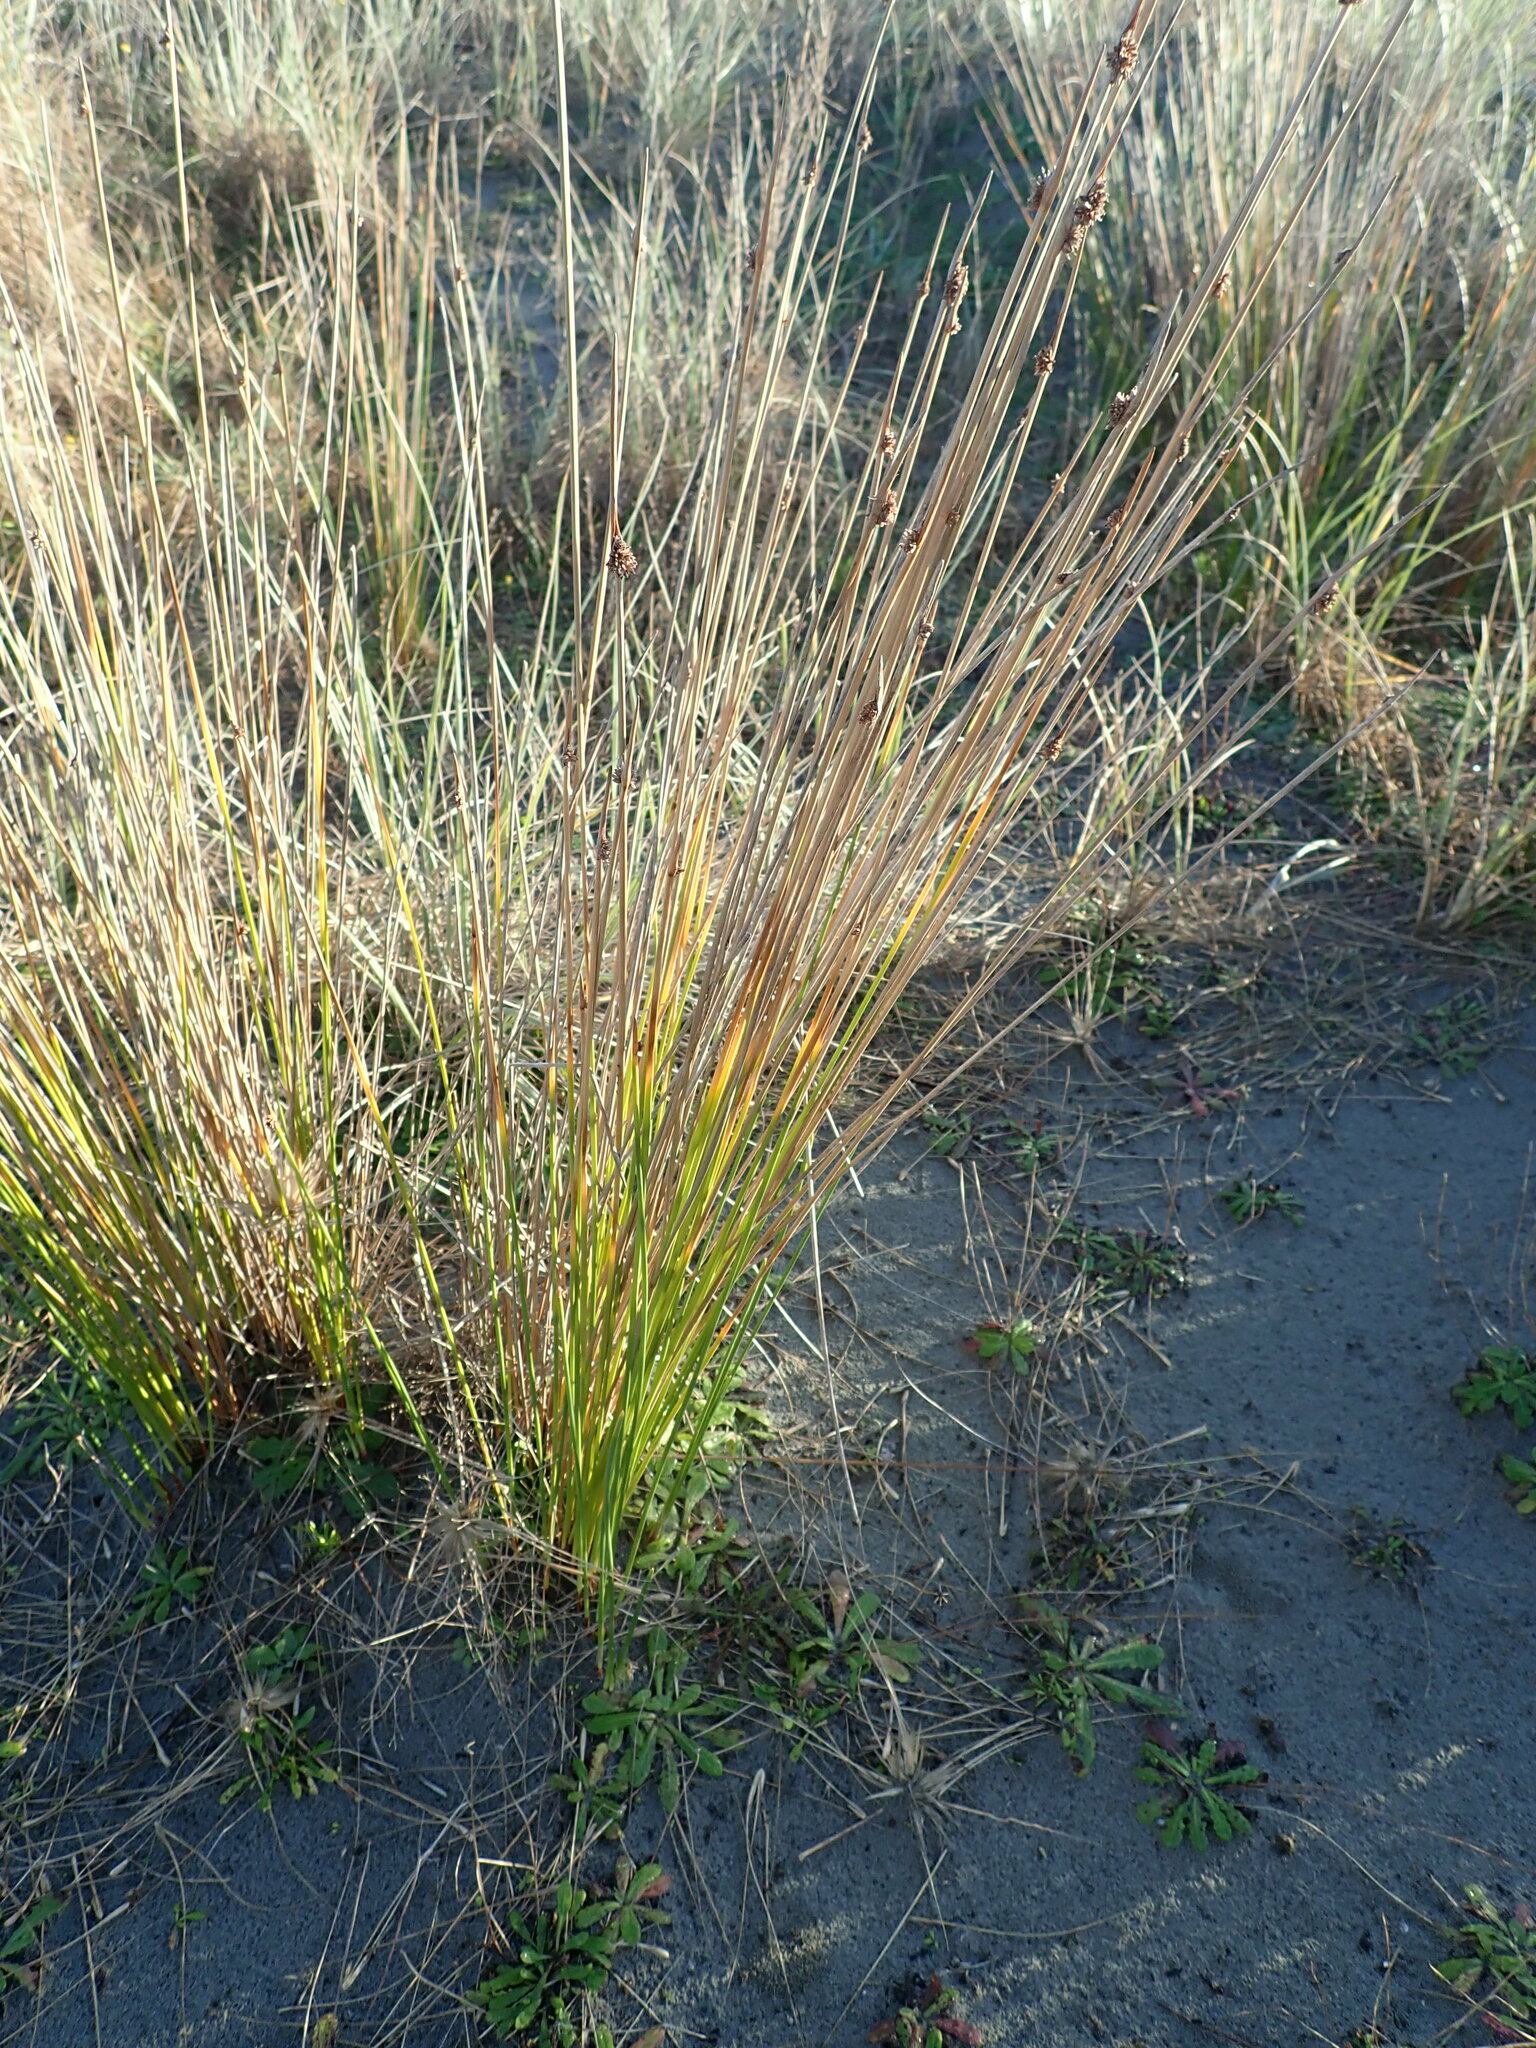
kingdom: Plantae
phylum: Tracheophyta
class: Liliopsida
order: Poales
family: Cyperaceae
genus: Ficinia
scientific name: Ficinia nodosa
